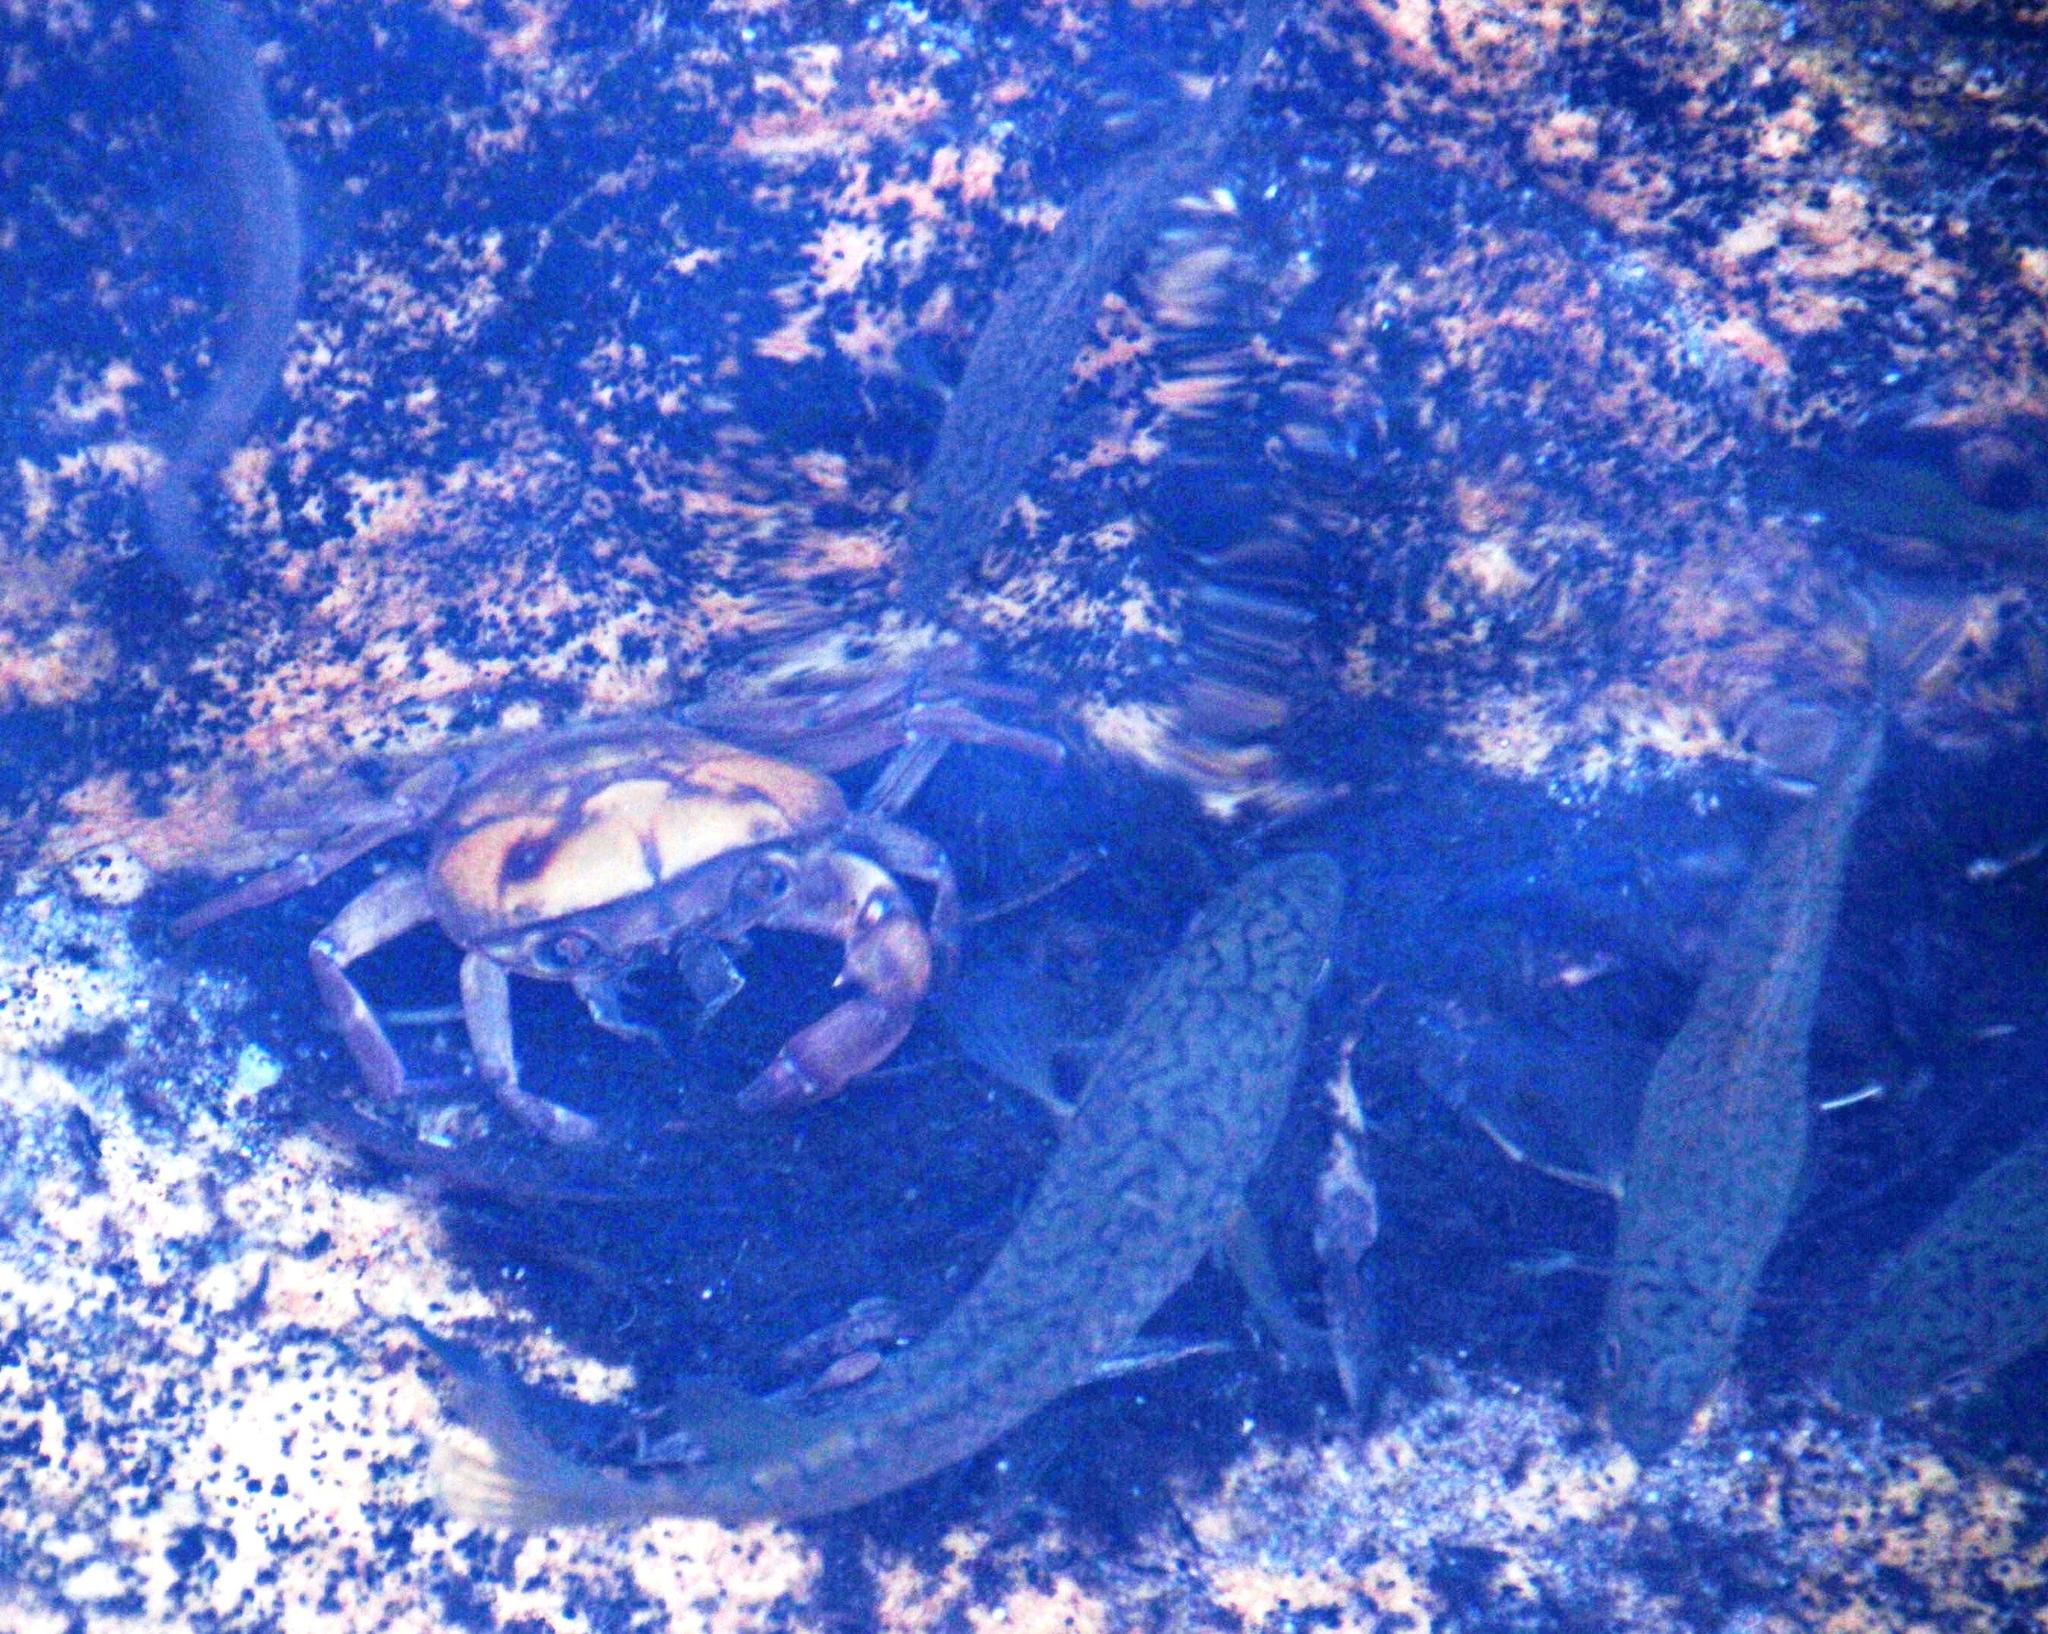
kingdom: Animalia
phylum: Arthropoda
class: Malacostraca
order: Decapoda
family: Potamonautidae
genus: Potamonautes
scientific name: Potamonautes parvispina
